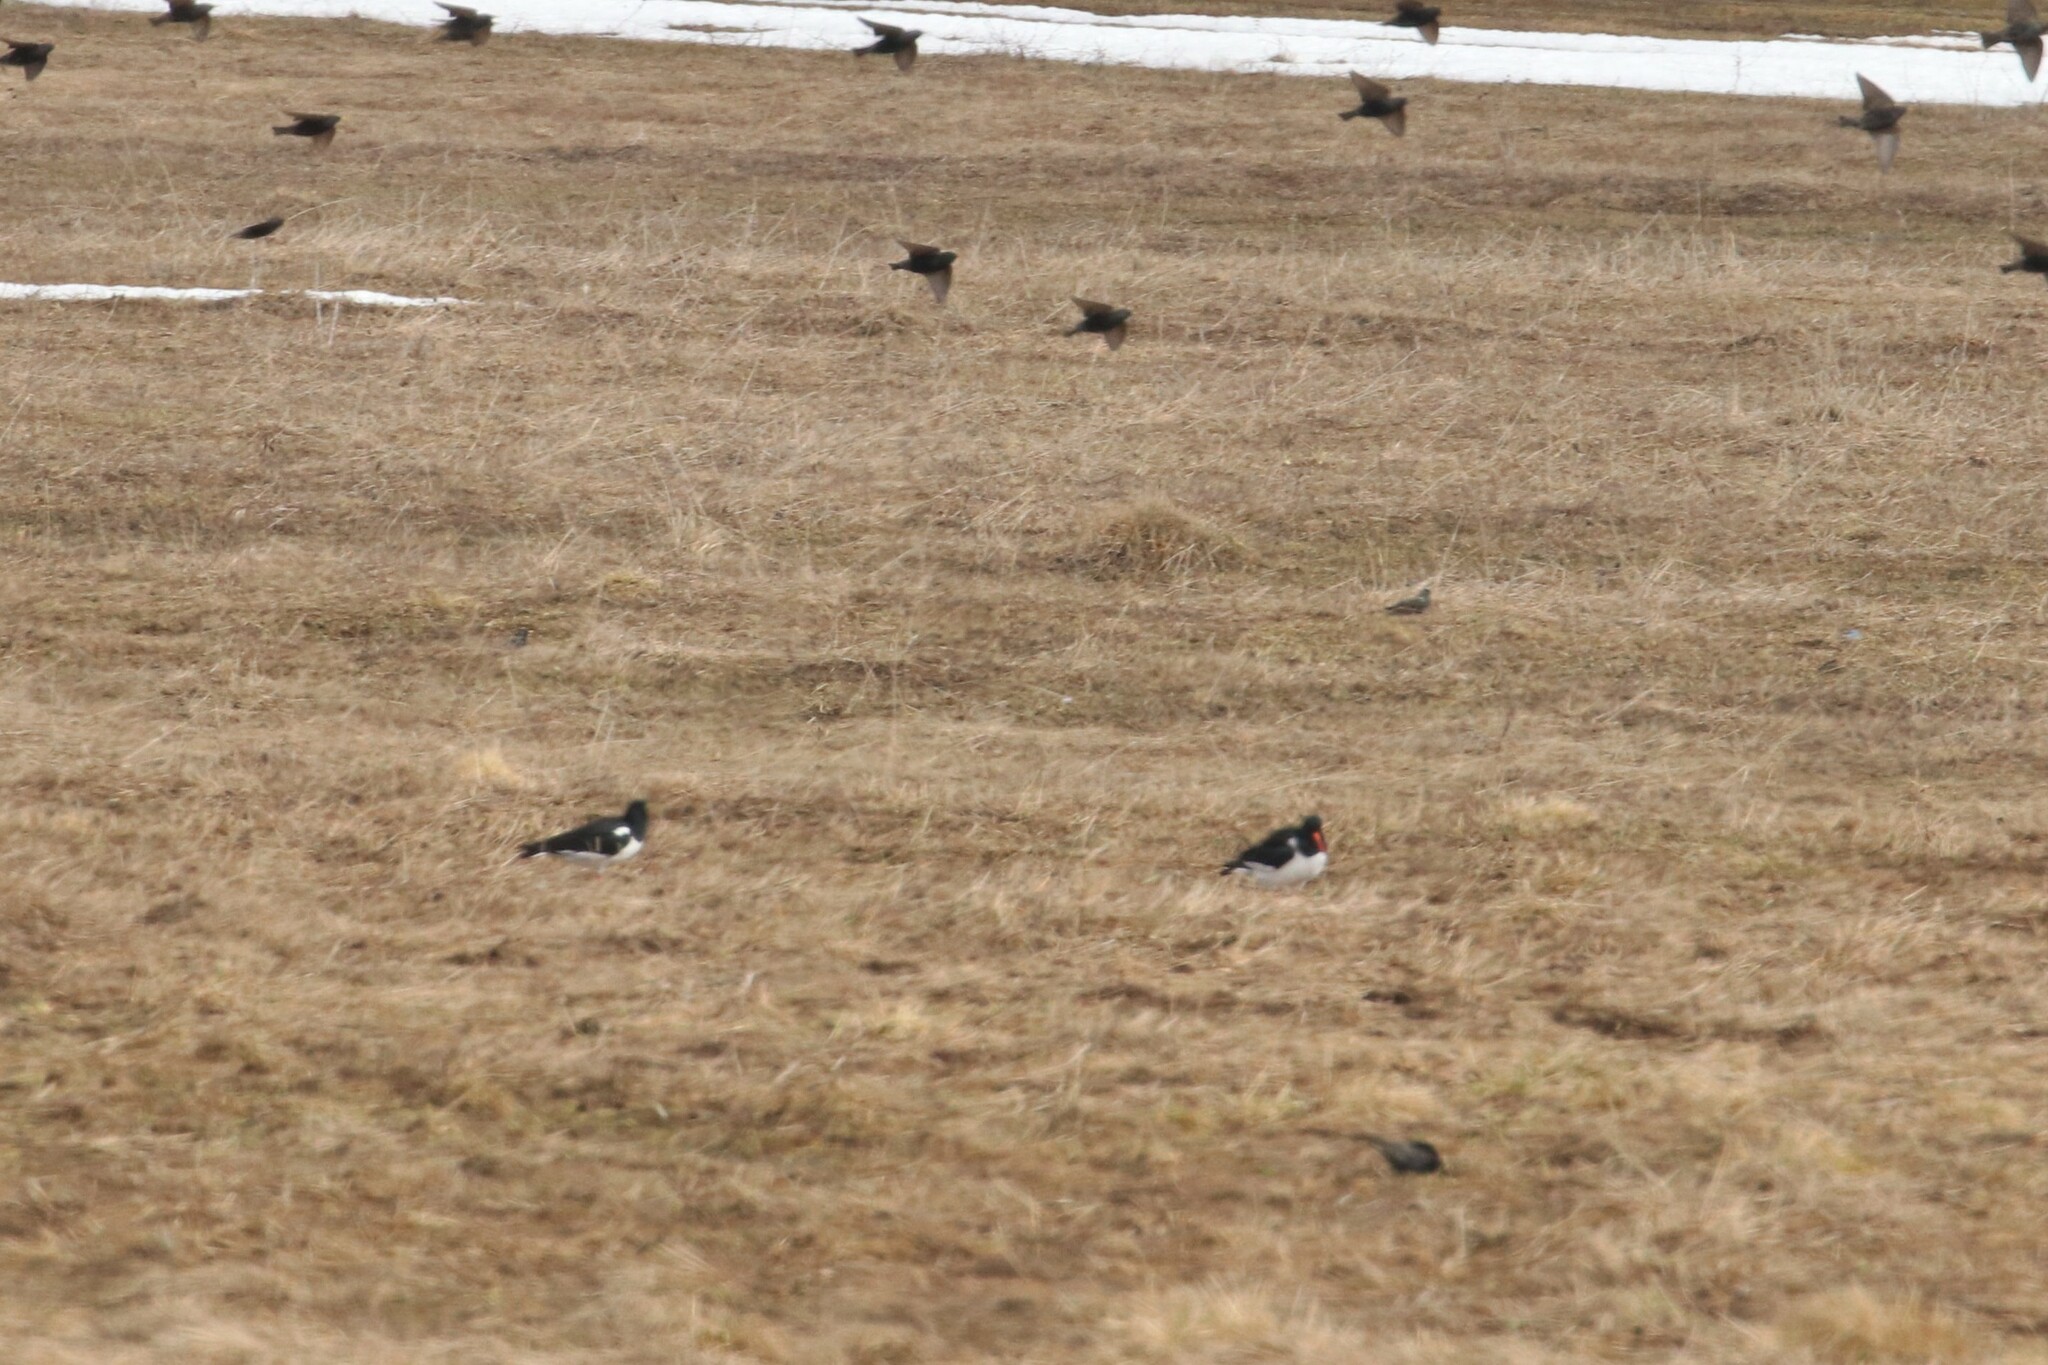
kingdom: Animalia
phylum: Chordata
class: Aves
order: Charadriiformes
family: Haematopodidae
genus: Haematopus
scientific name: Haematopus ostralegus
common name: Eurasian oystercatcher
